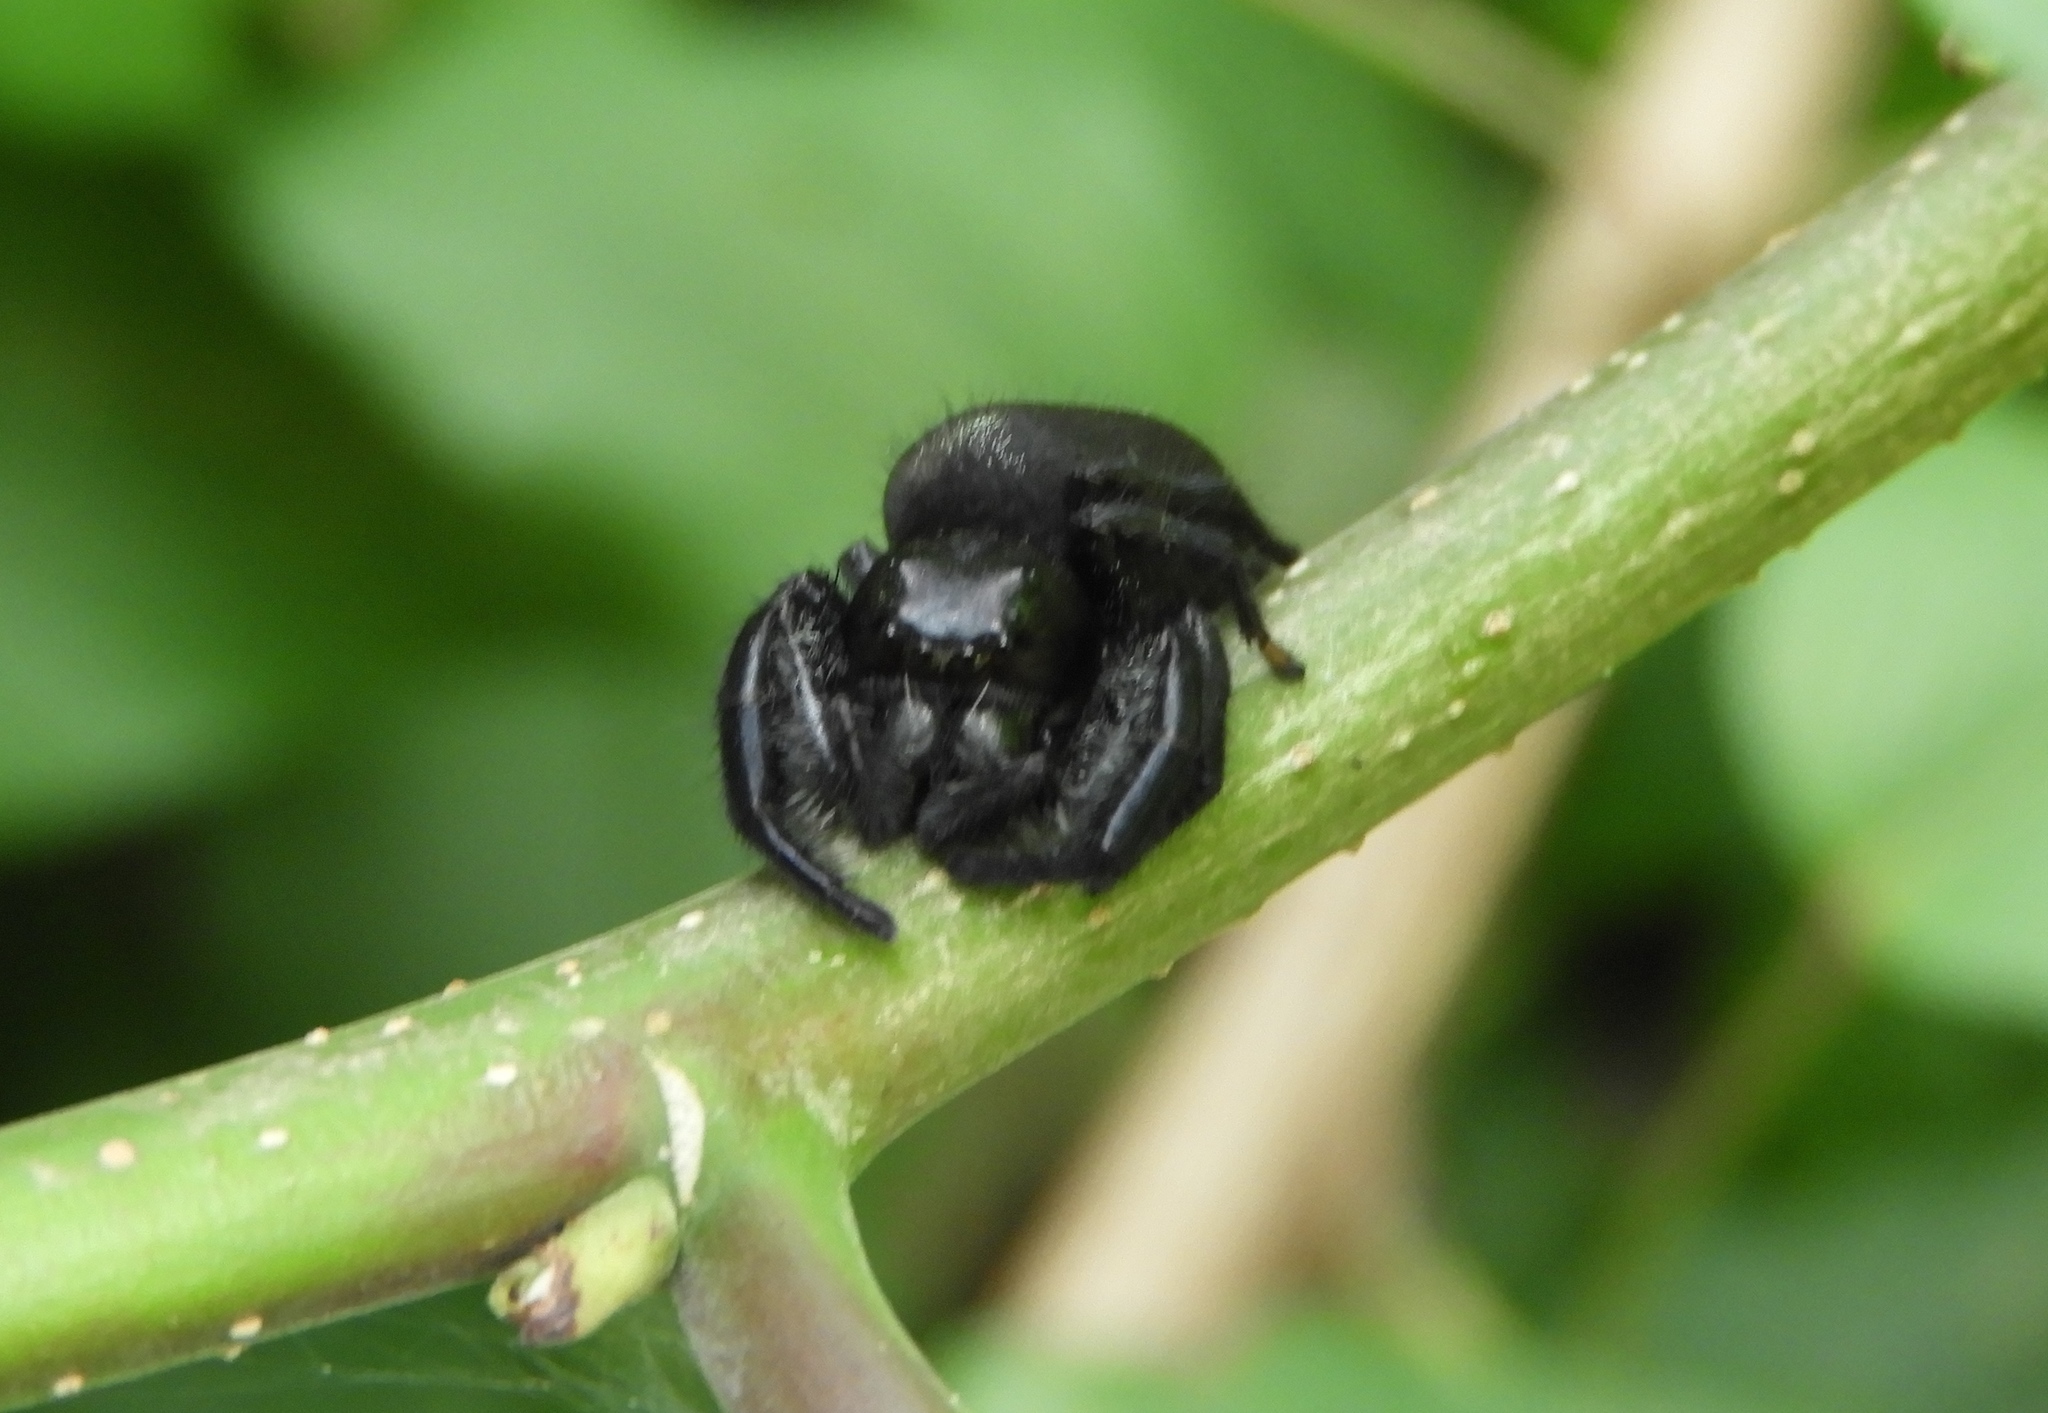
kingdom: Animalia
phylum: Arthropoda
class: Arachnida
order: Araneae
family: Salticidae
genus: Paraphidippus
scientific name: Paraphidippus
